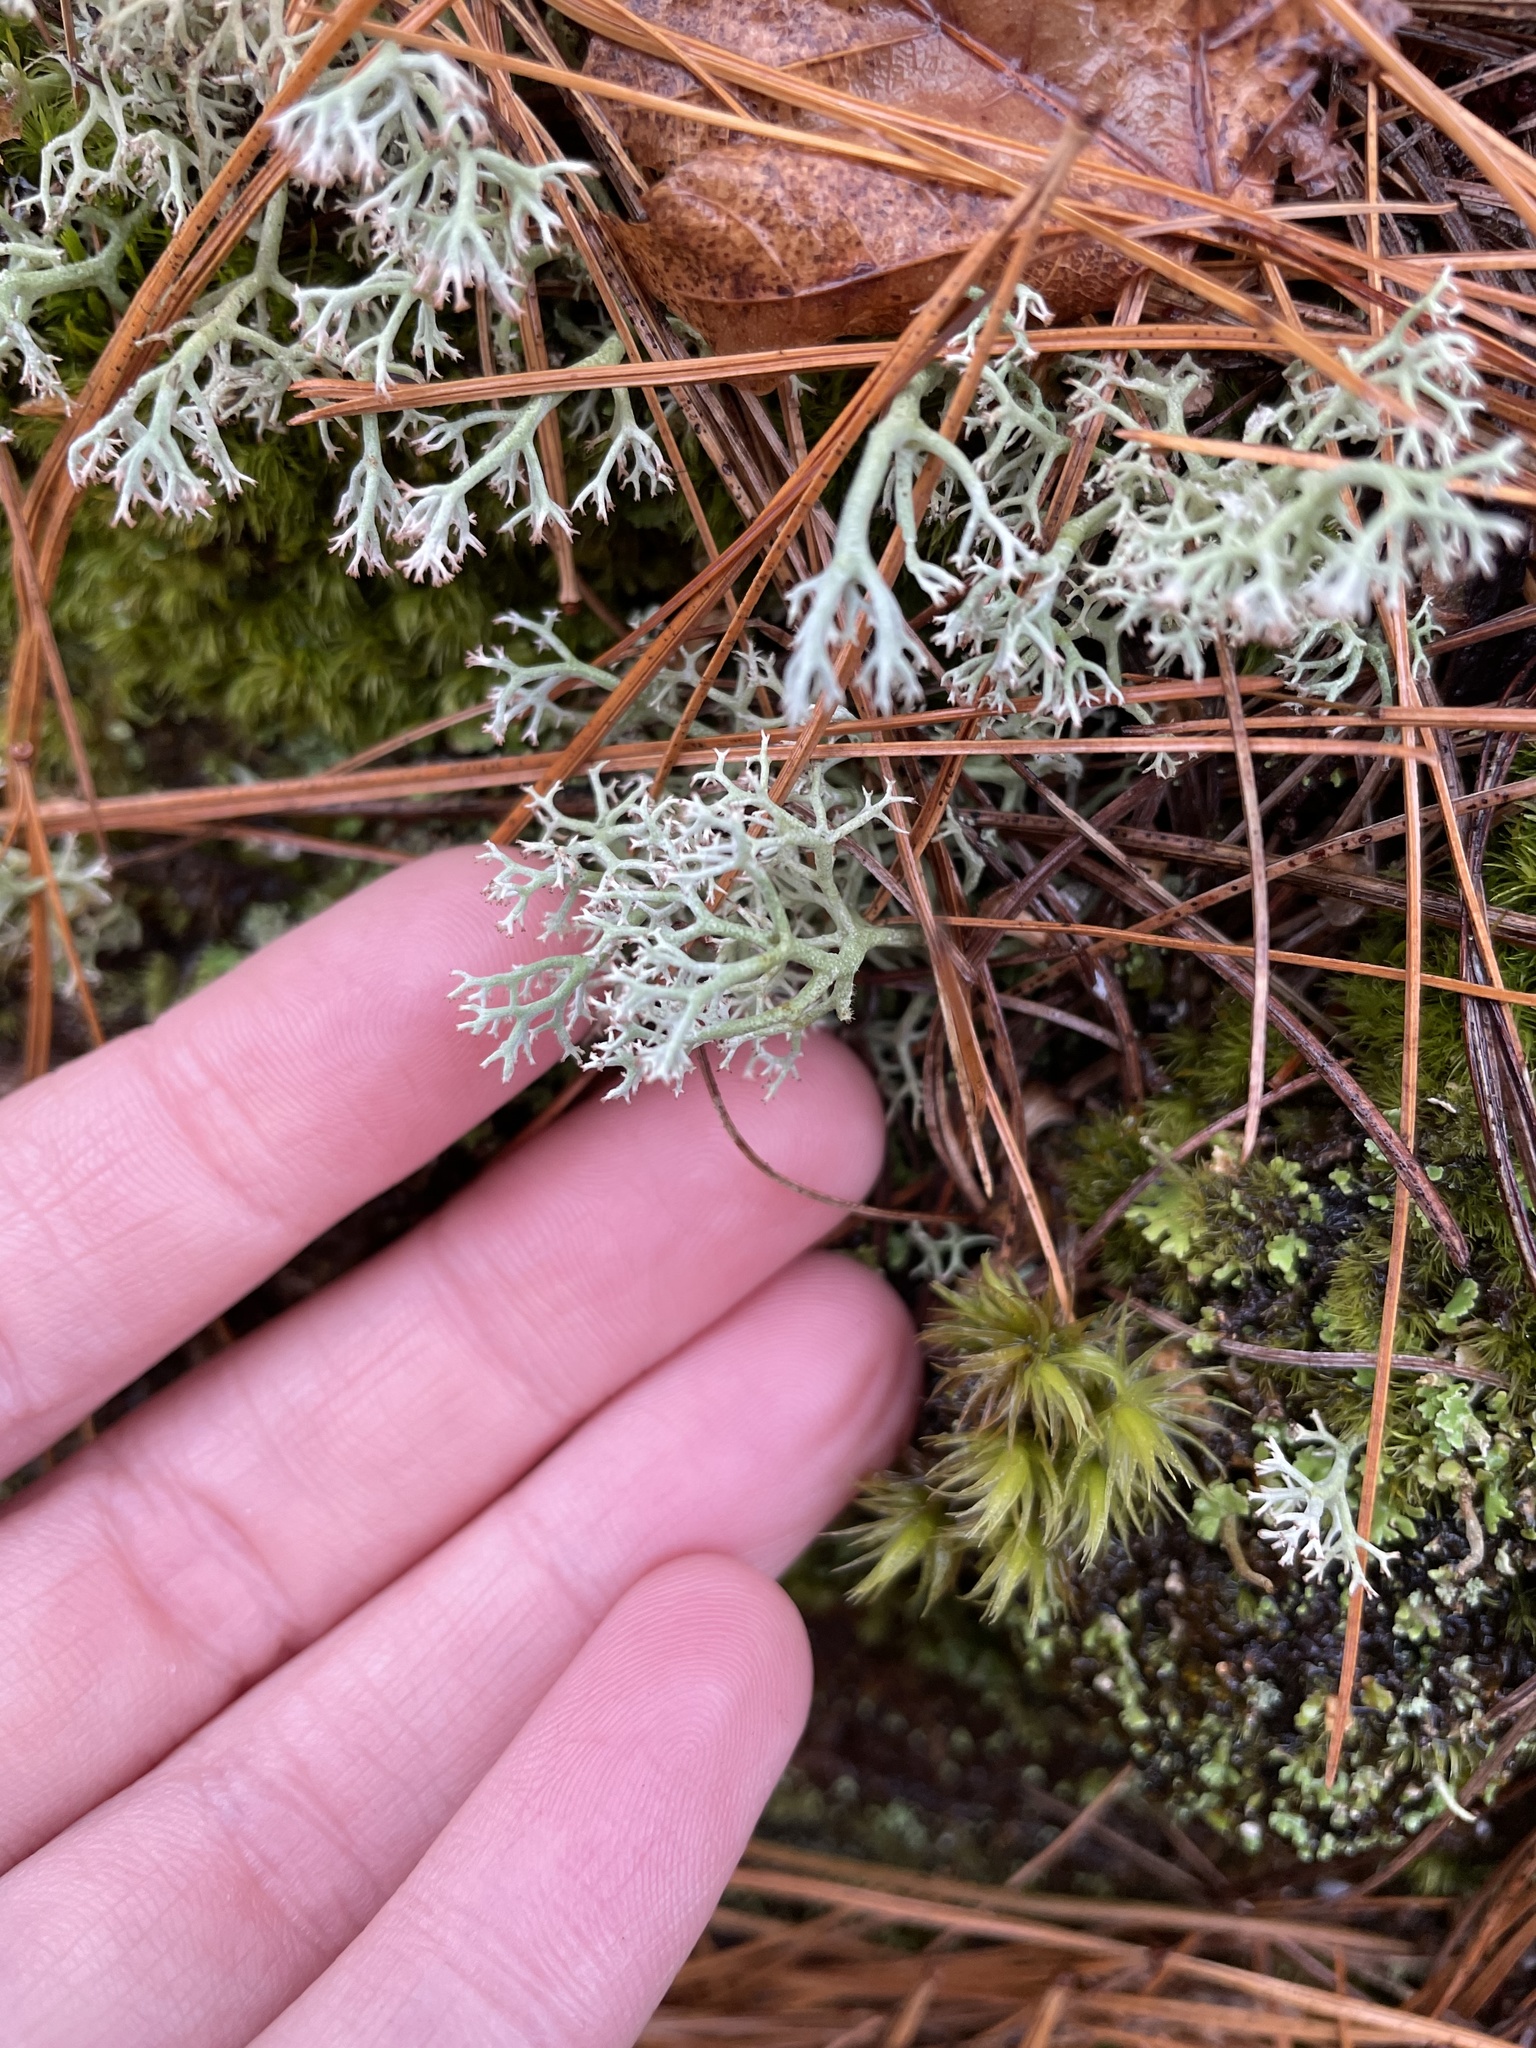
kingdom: Fungi
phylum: Ascomycota
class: Lecanoromycetes
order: Lecanorales
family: Cladoniaceae
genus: Cladonia
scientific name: Cladonia rangiferina
